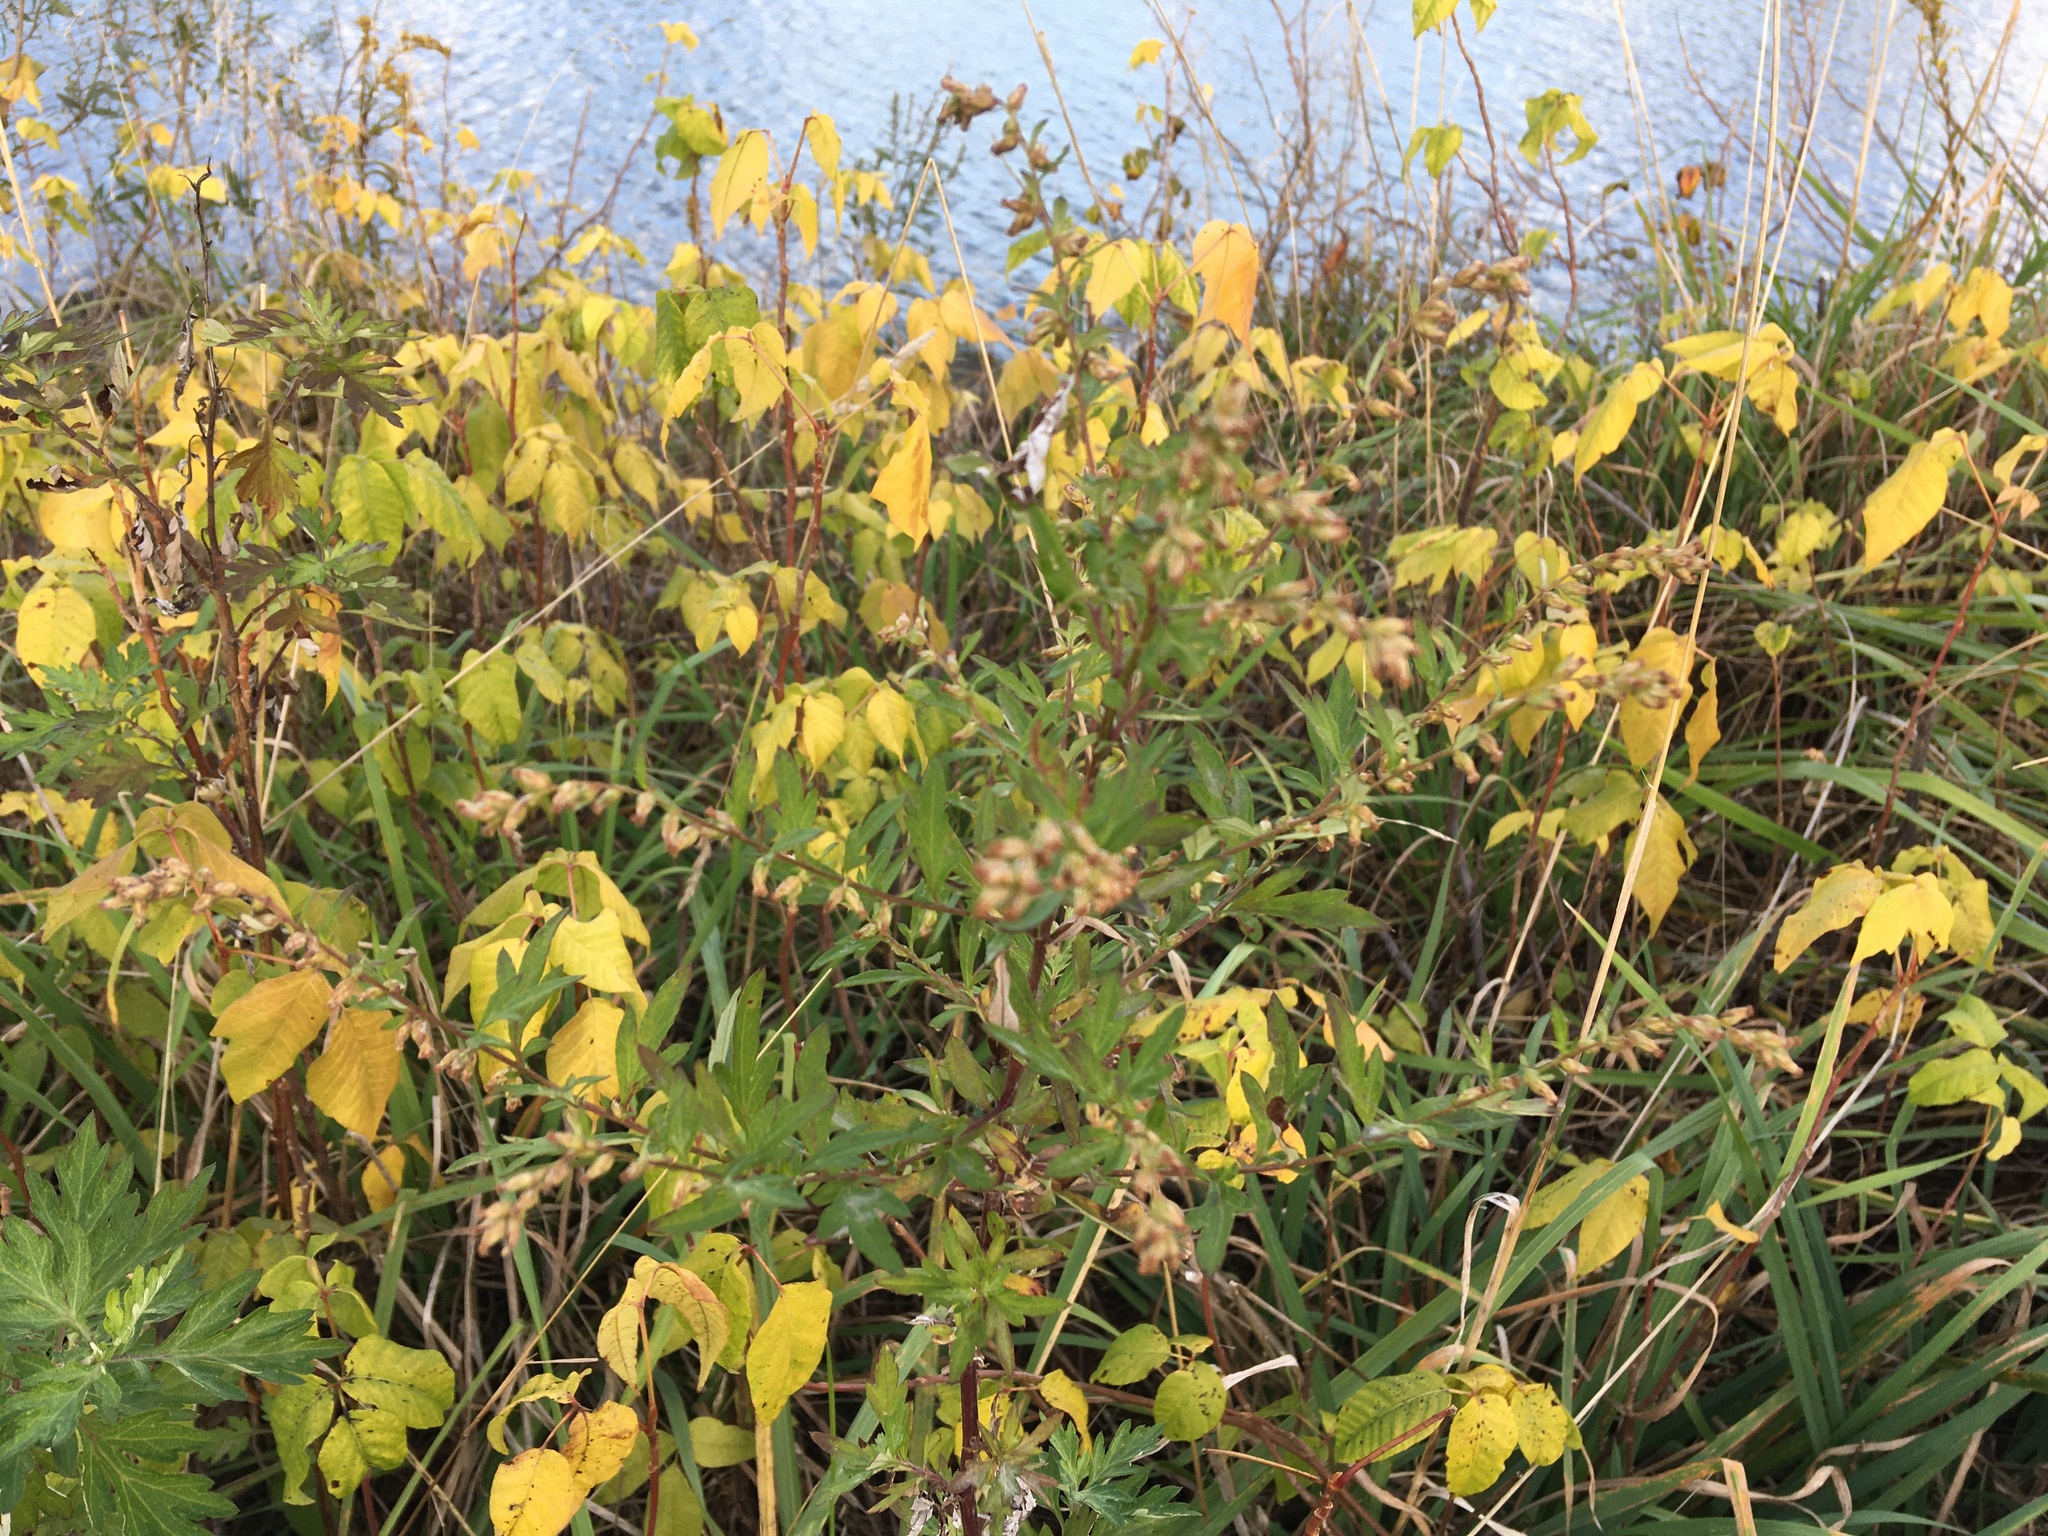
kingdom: Plantae
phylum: Tracheophyta
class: Magnoliopsida
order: Asterales
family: Asteraceae
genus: Artemisia
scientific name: Artemisia vulgaris
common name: Mugwort
